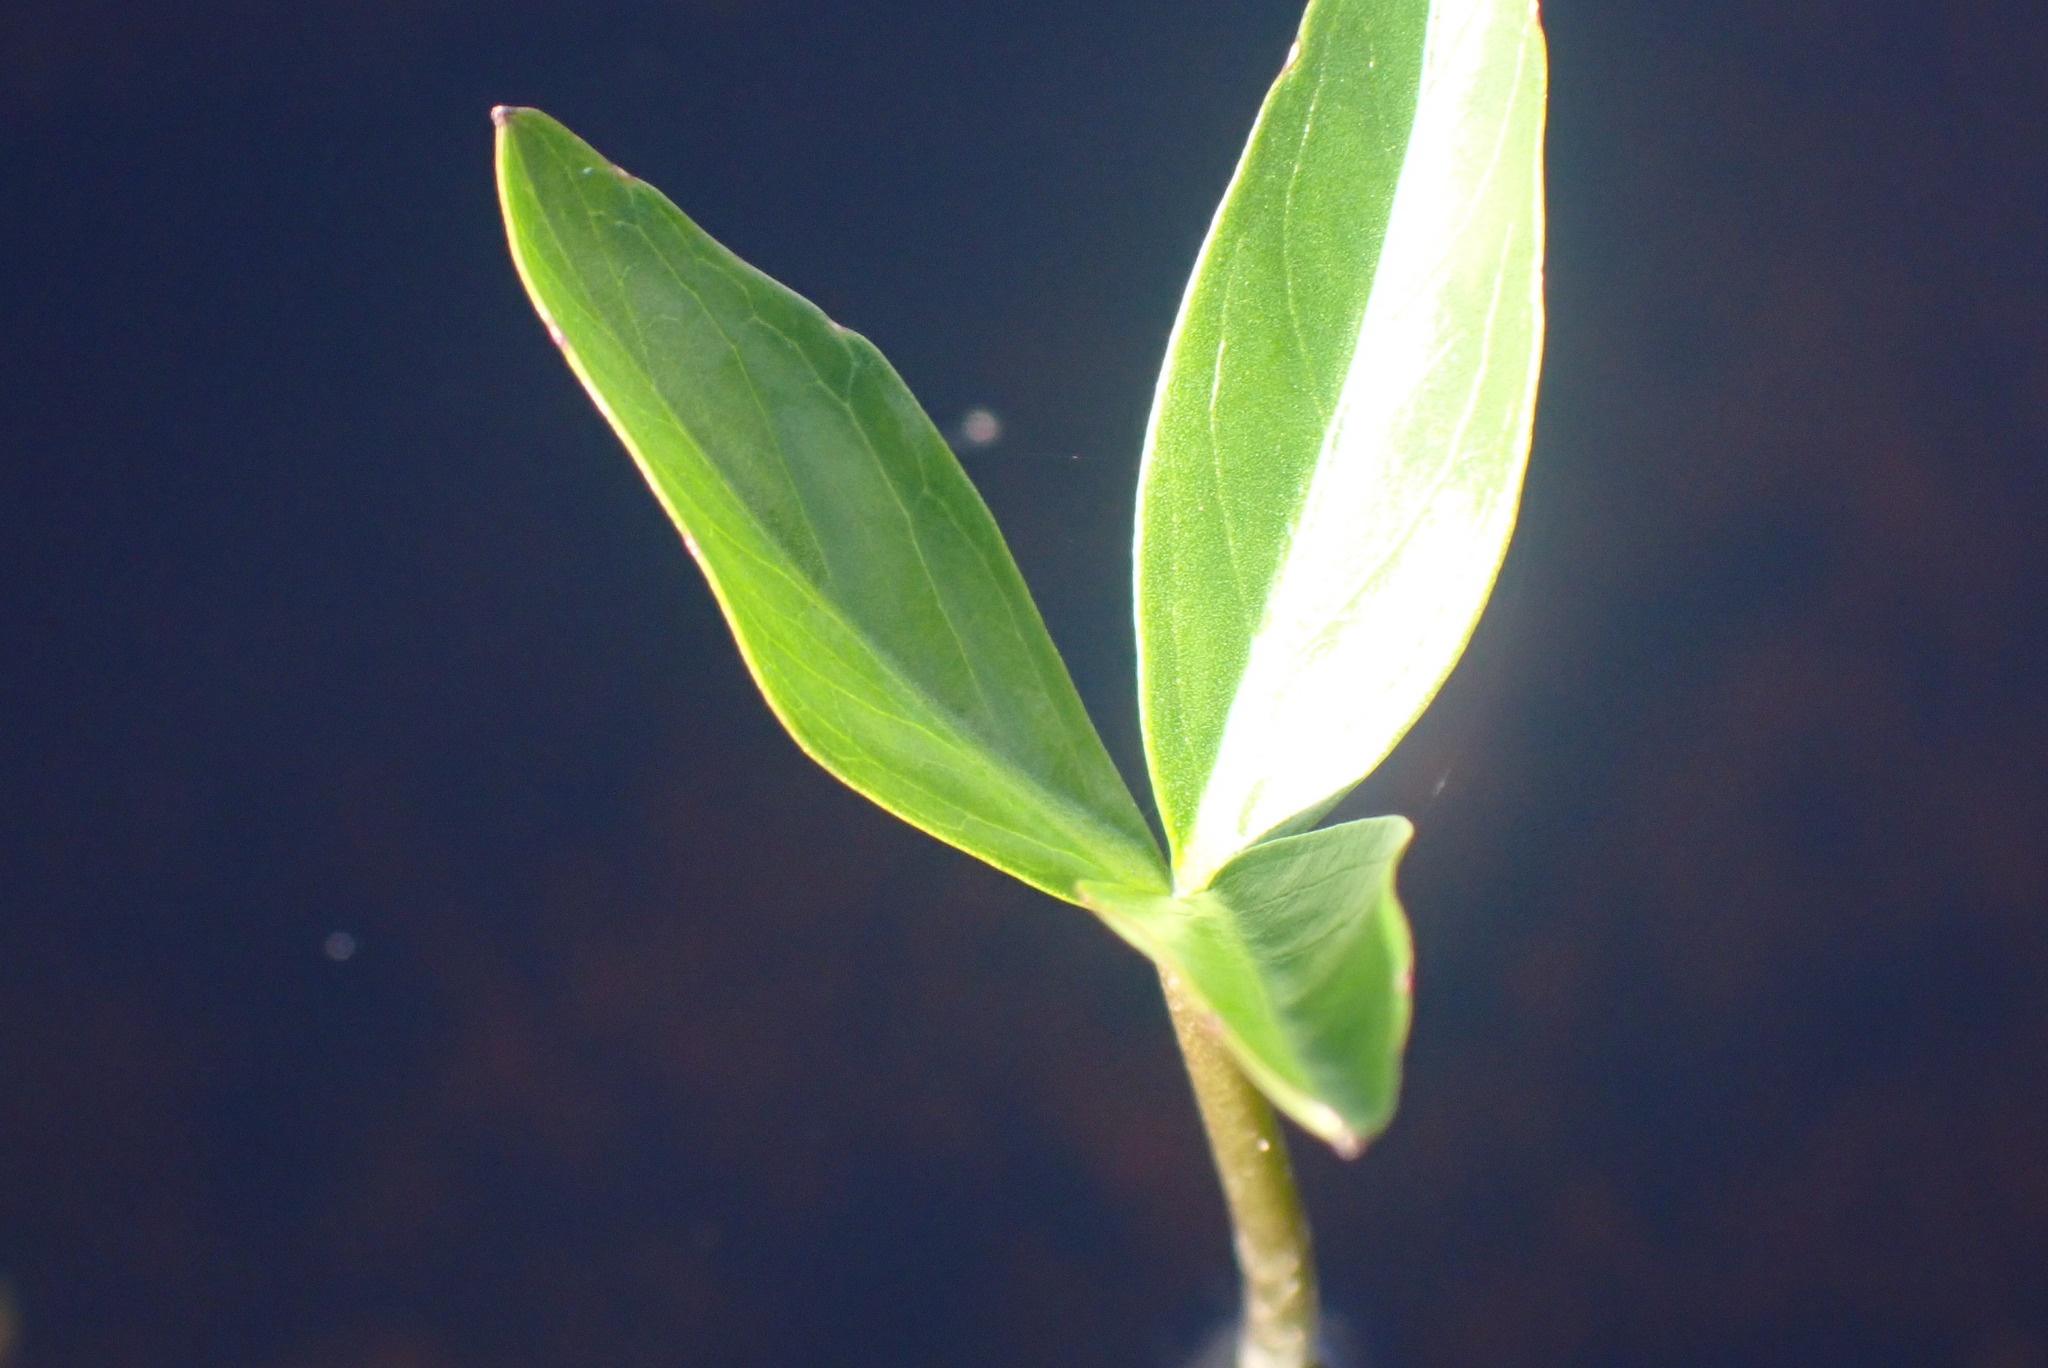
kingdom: Plantae
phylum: Tracheophyta
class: Magnoliopsida
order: Asterales
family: Menyanthaceae
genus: Menyanthes
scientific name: Menyanthes trifoliata
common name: Bogbean
